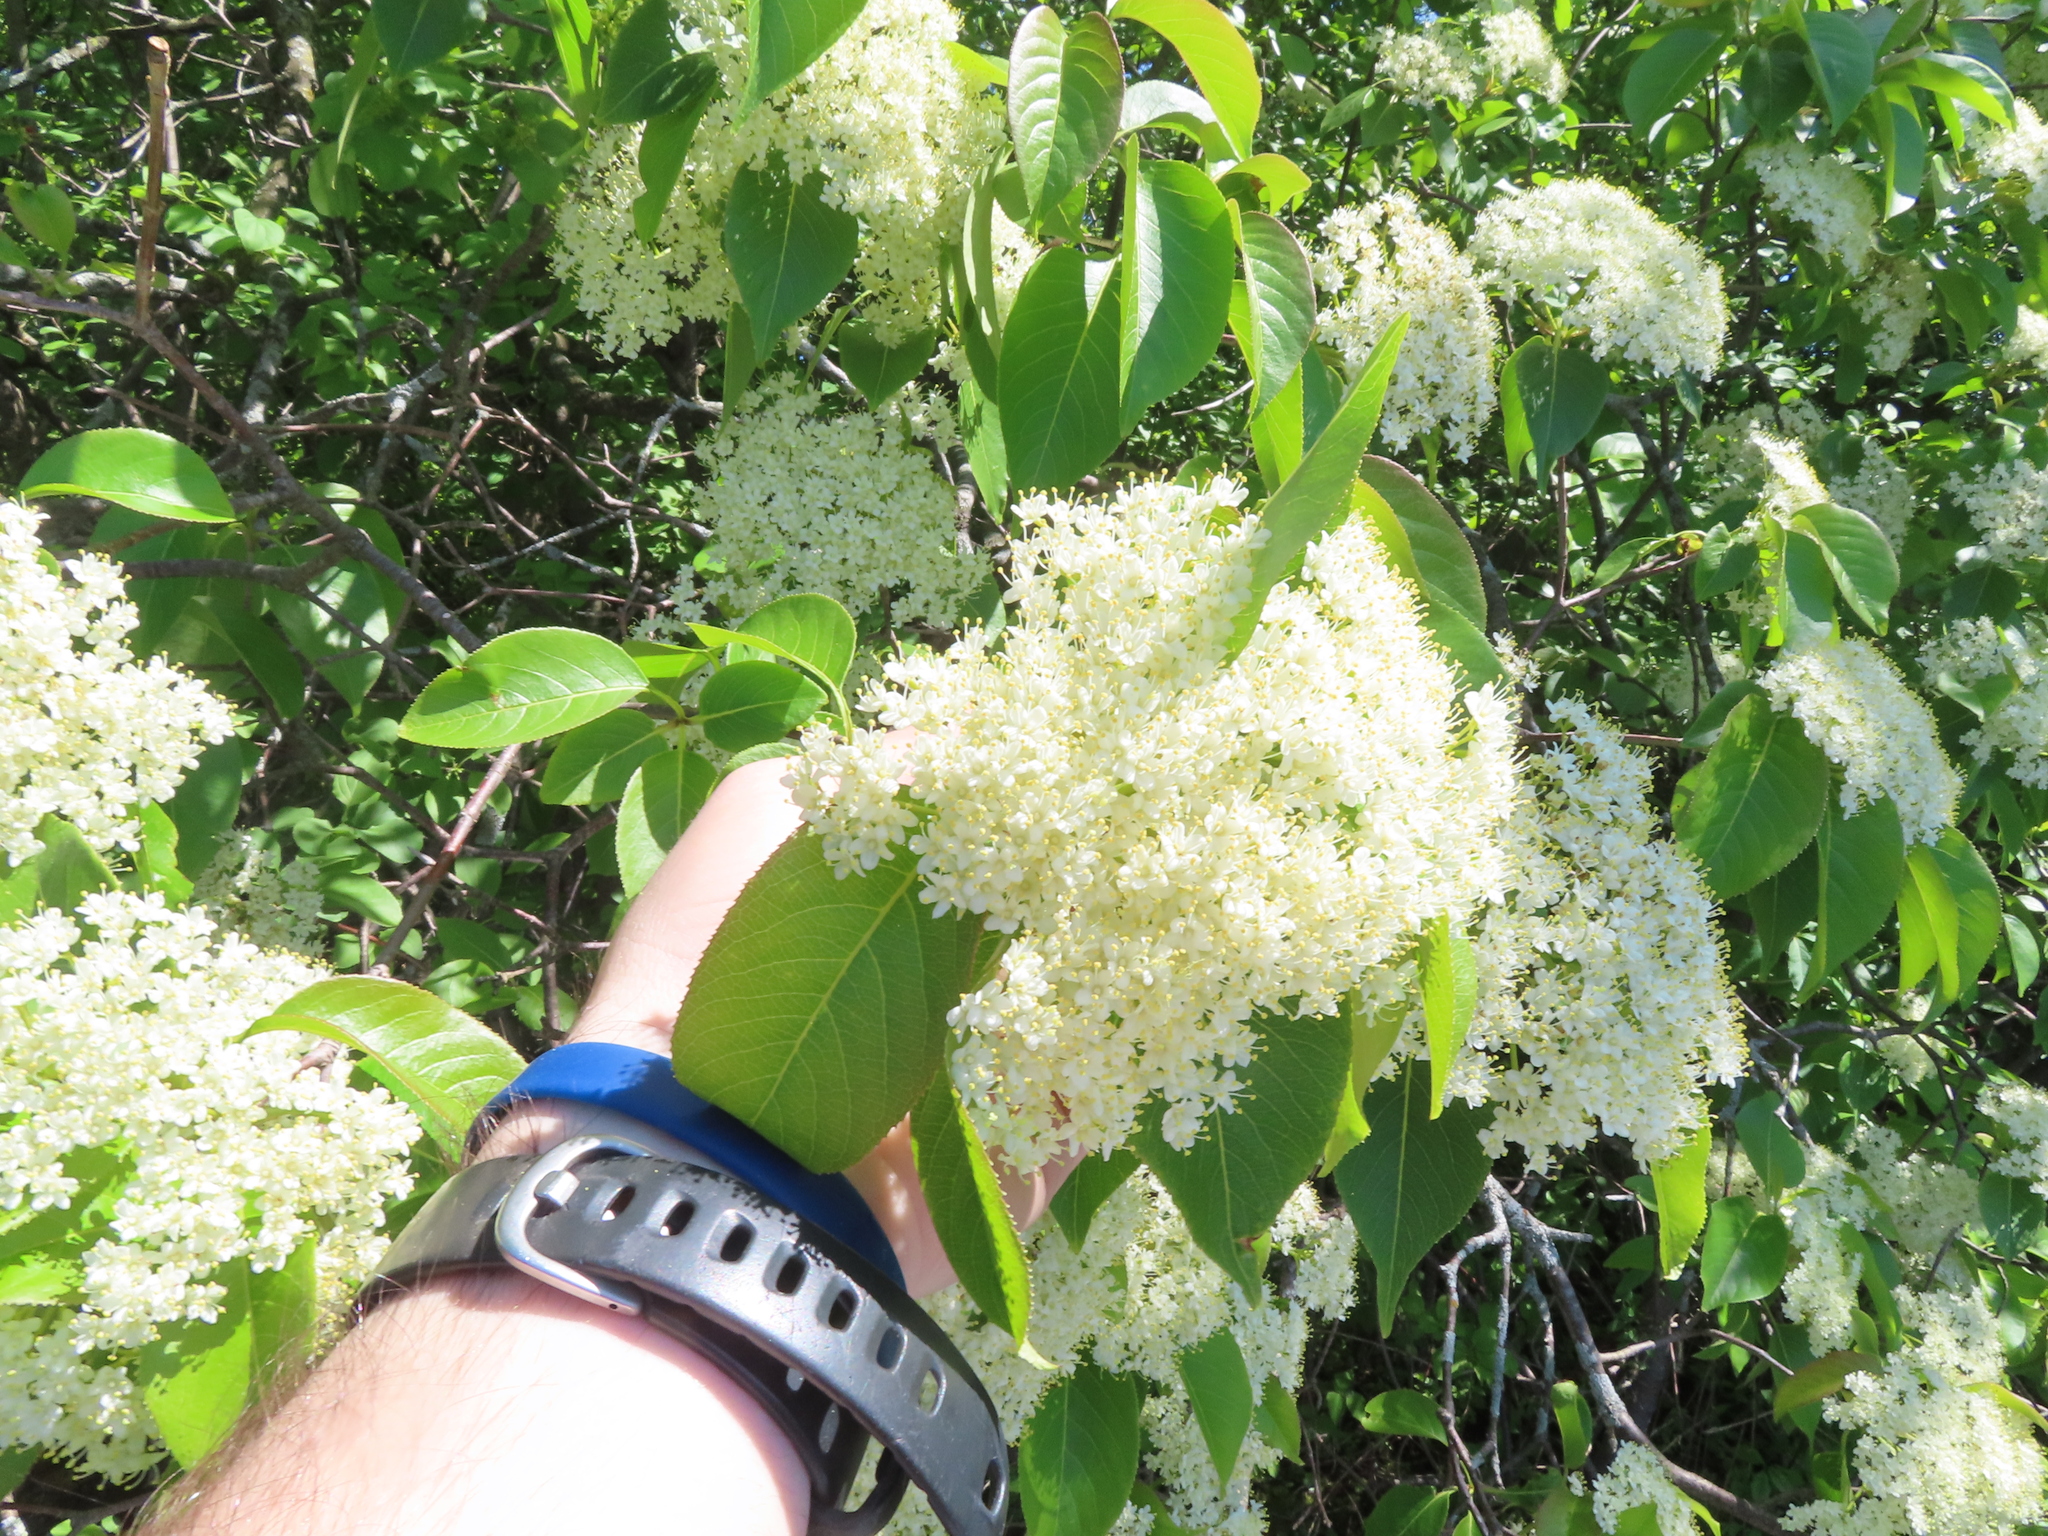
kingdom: Plantae
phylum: Tracheophyta
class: Magnoliopsida
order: Dipsacales
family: Viburnaceae
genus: Viburnum
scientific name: Viburnum lentago
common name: Black haw
